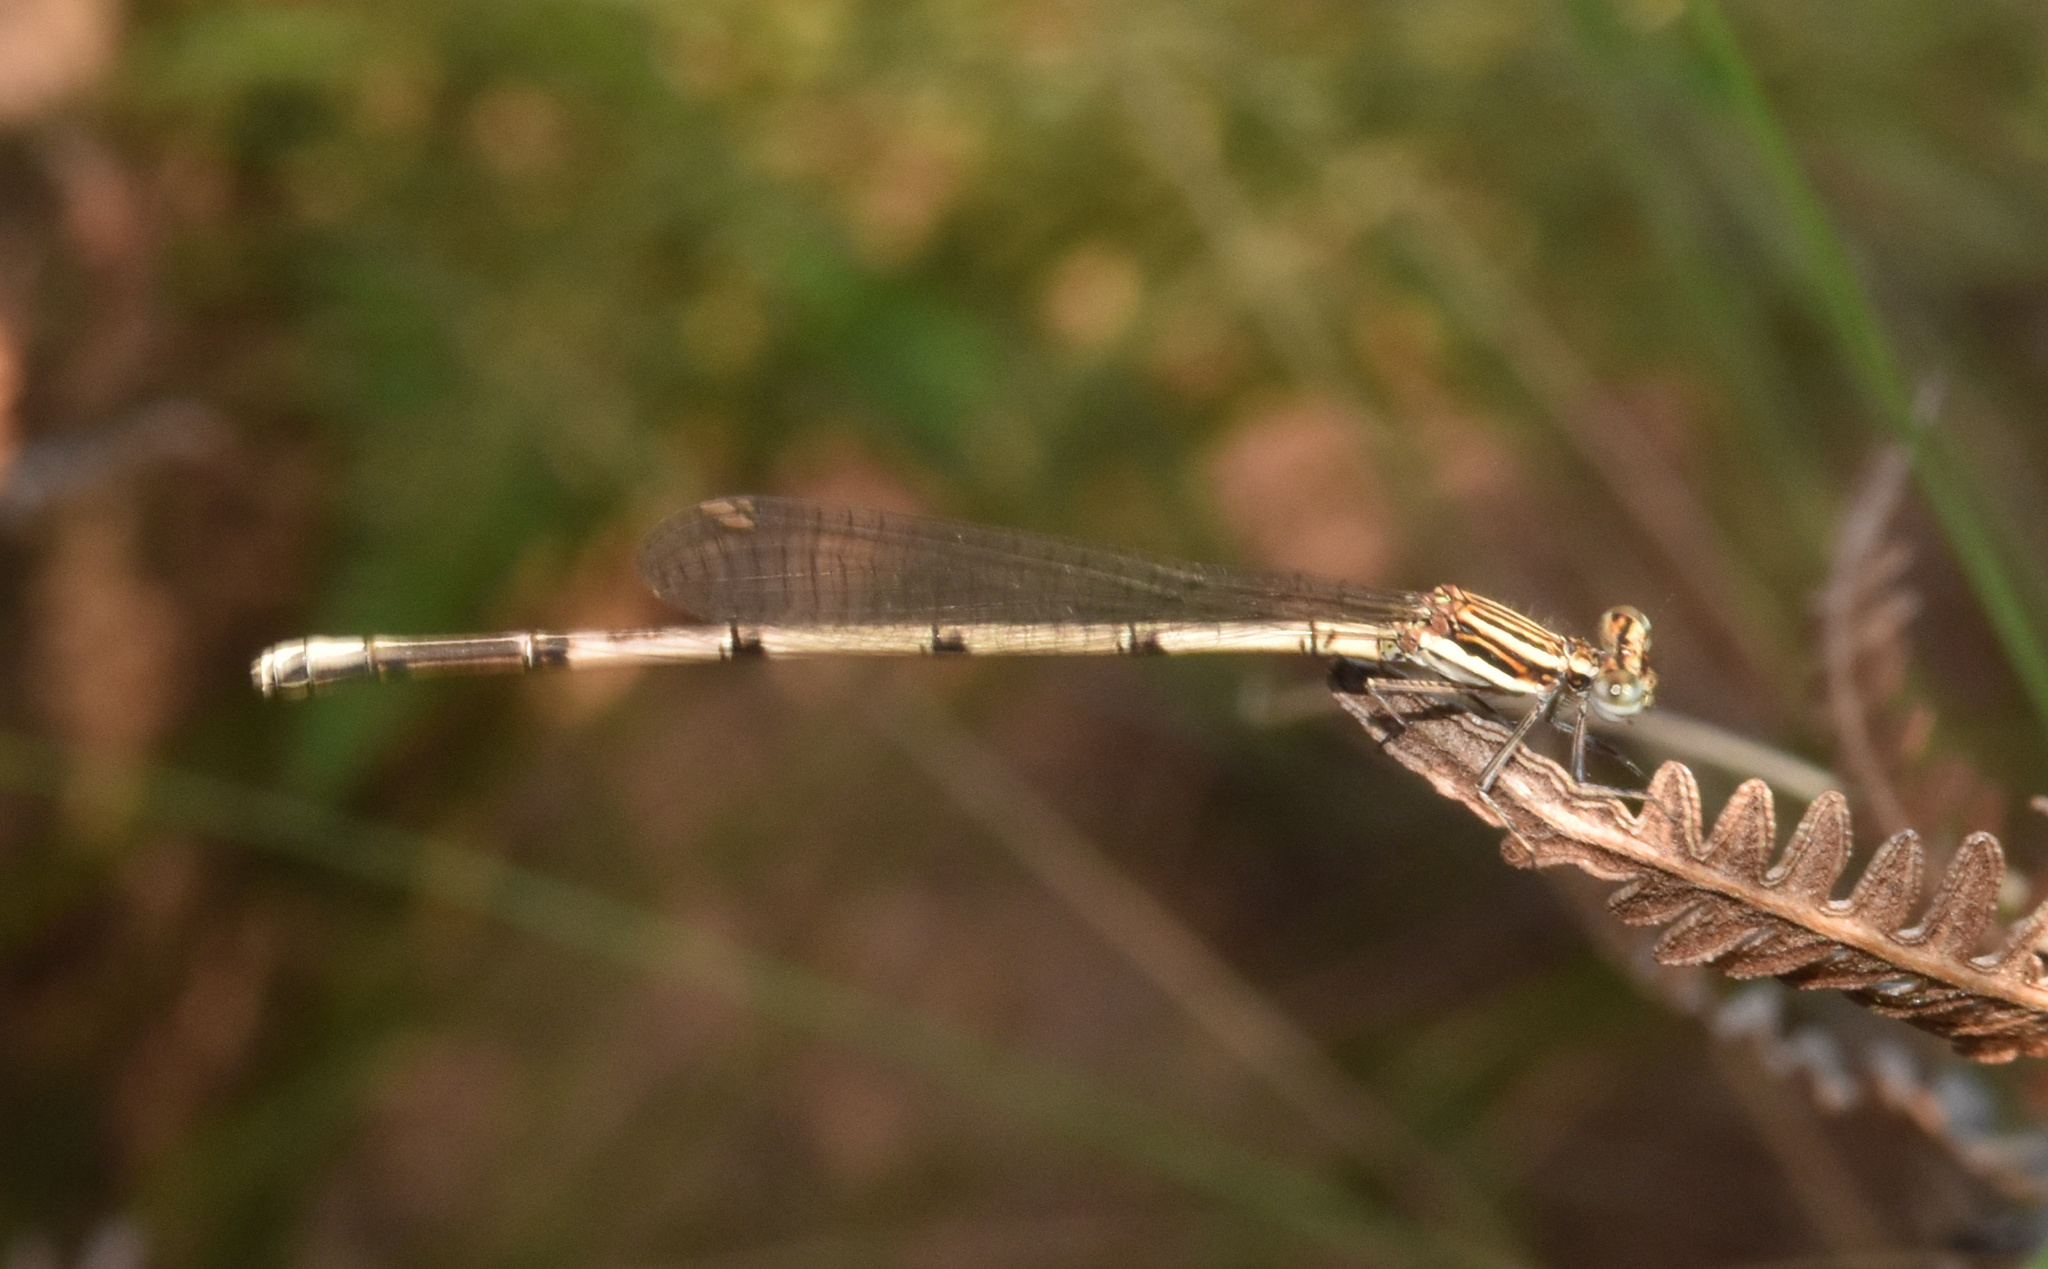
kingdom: Animalia
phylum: Arthropoda
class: Insecta
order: Odonata
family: Platycnemididae
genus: Elattoneura
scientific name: Elattoneura glauca
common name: Common threadtail
